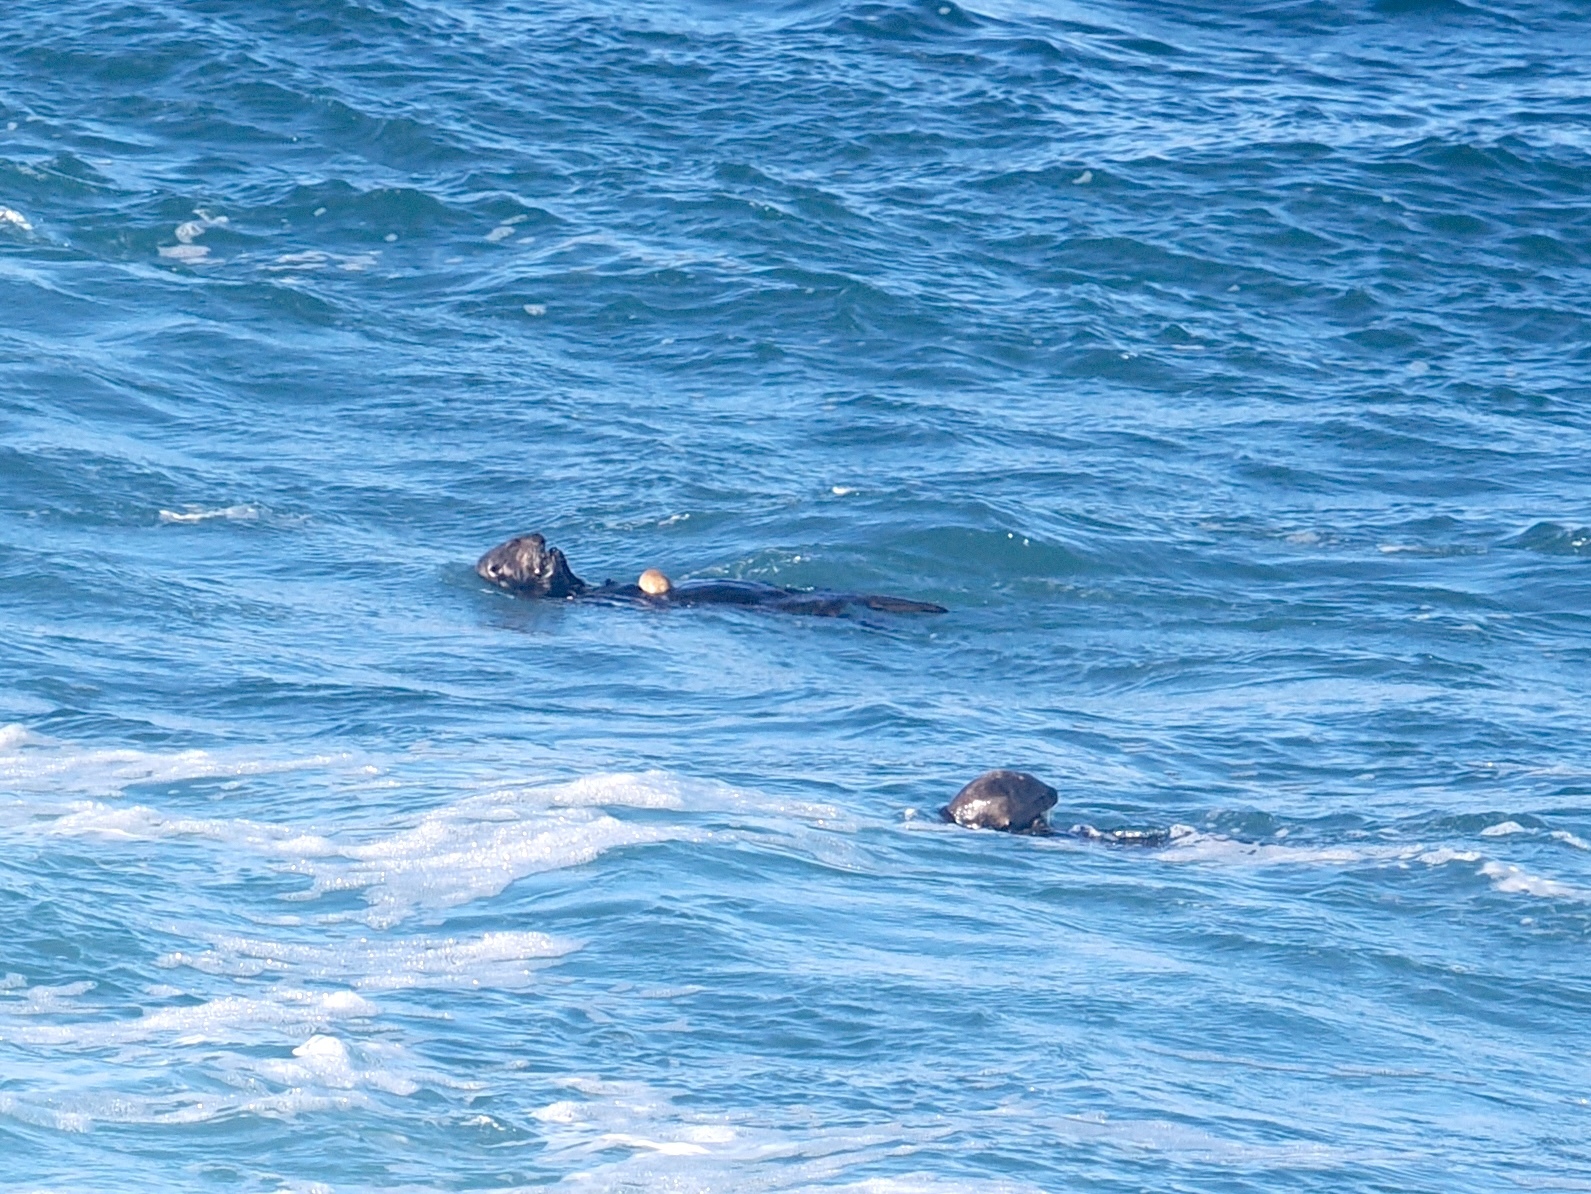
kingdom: Animalia
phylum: Chordata
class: Mammalia
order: Carnivora
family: Mustelidae
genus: Enhydra
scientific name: Enhydra lutris
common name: Sea otter
